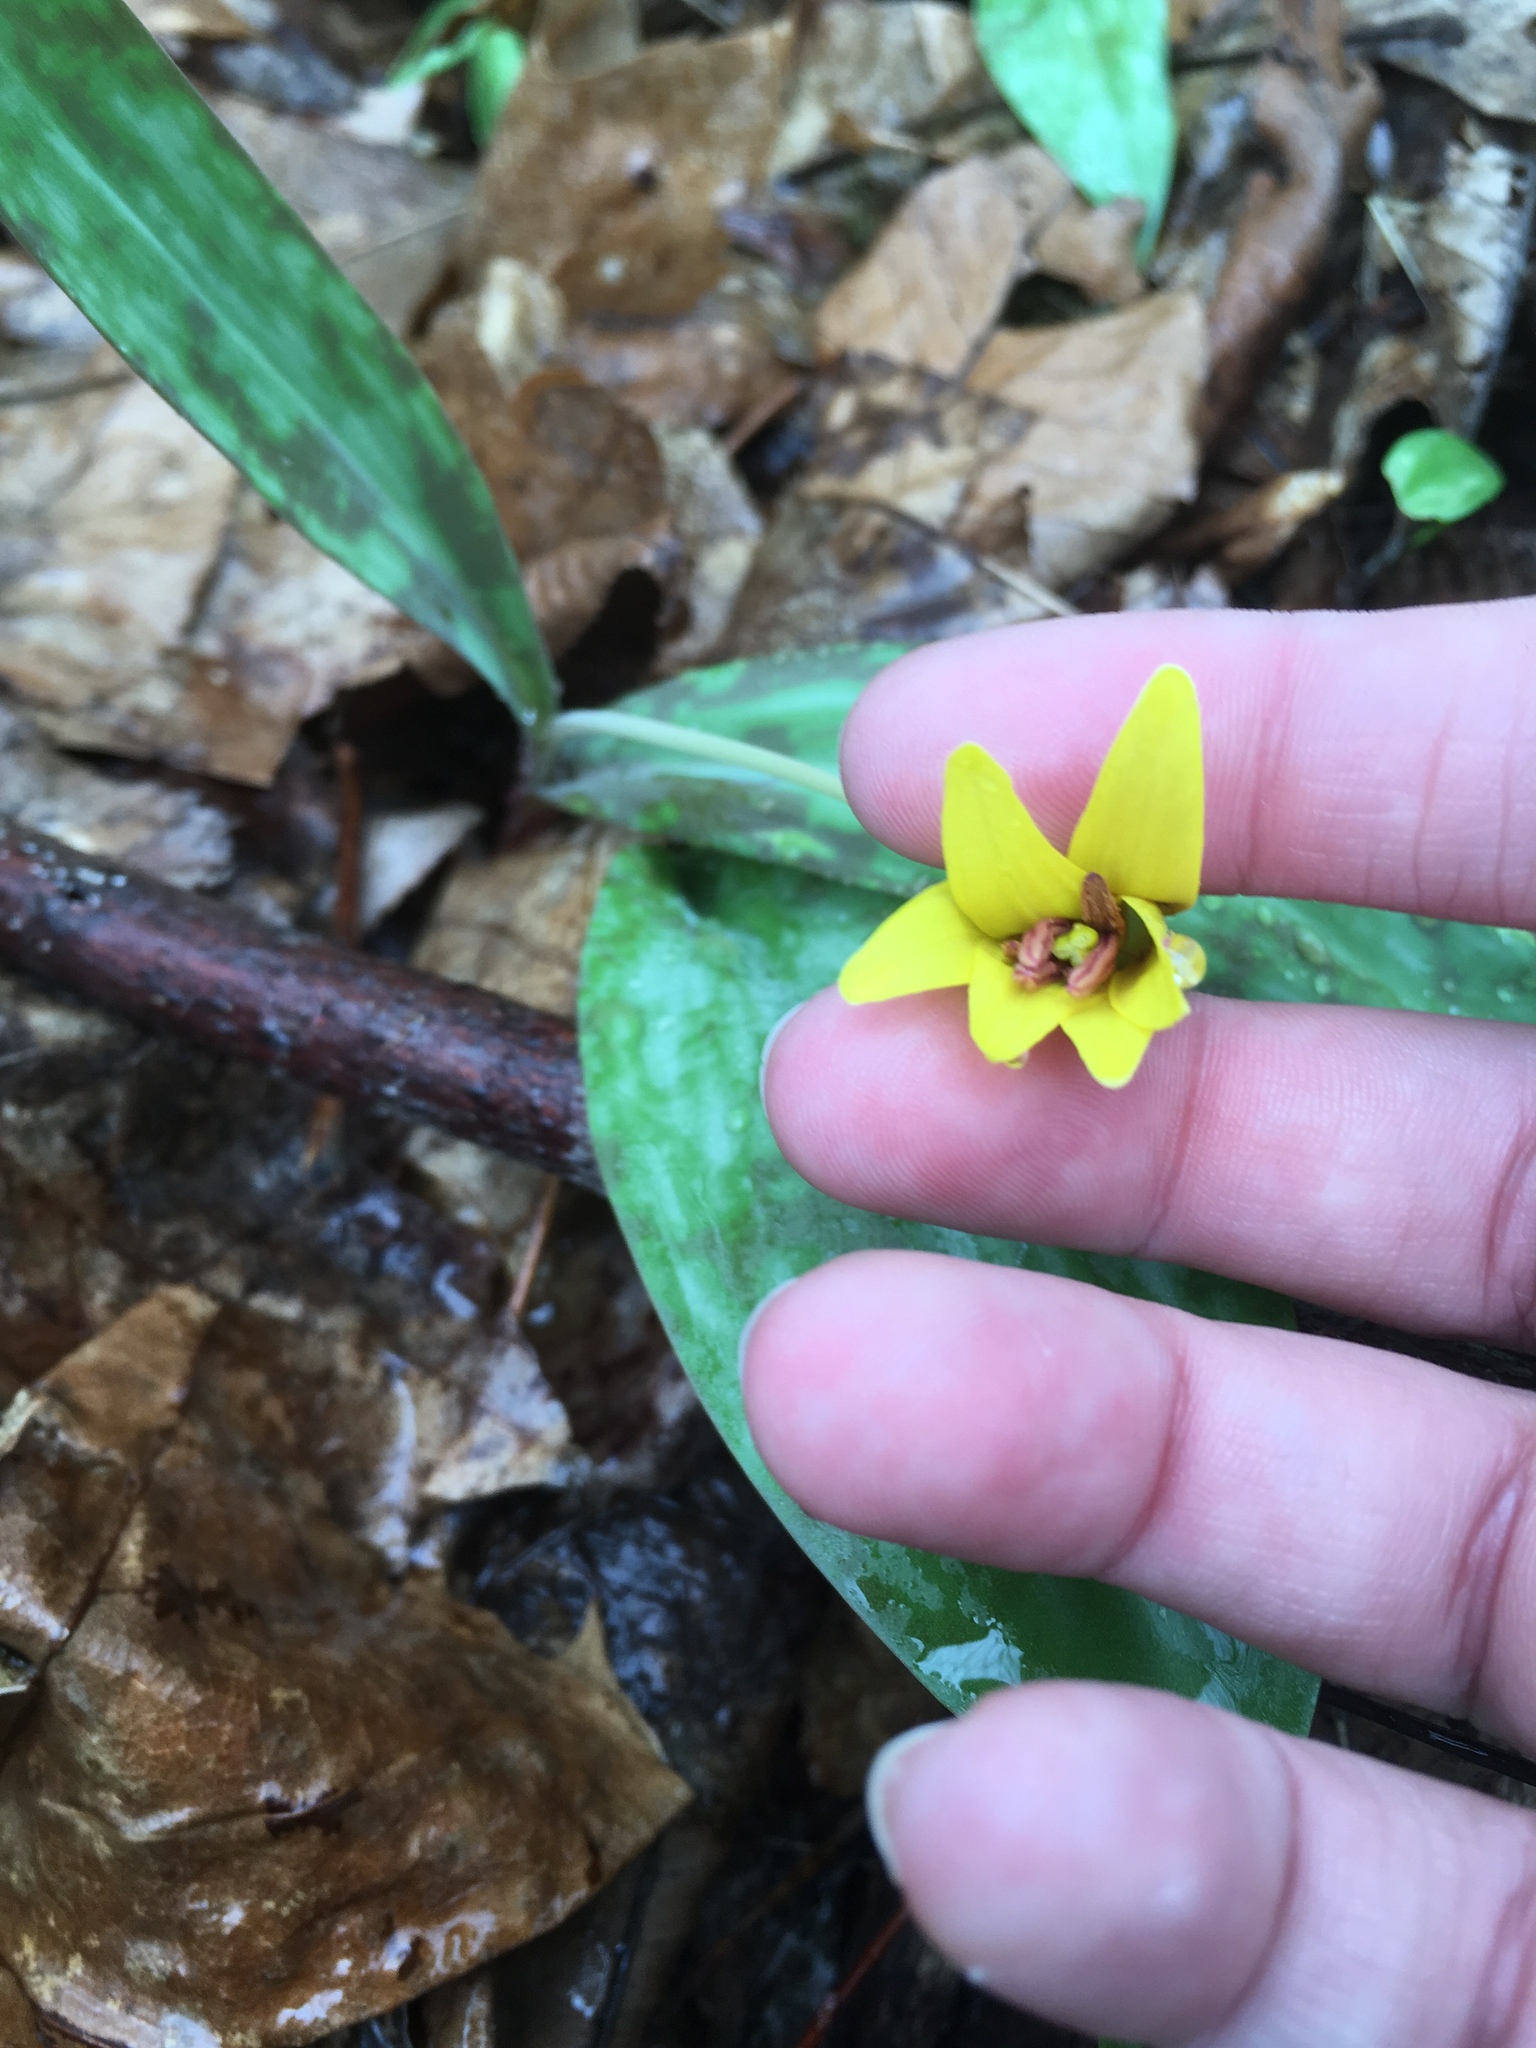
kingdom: Plantae
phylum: Tracheophyta
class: Liliopsida
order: Liliales
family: Liliaceae
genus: Erythronium
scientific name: Erythronium americanum
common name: Yellow adder's-tongue
